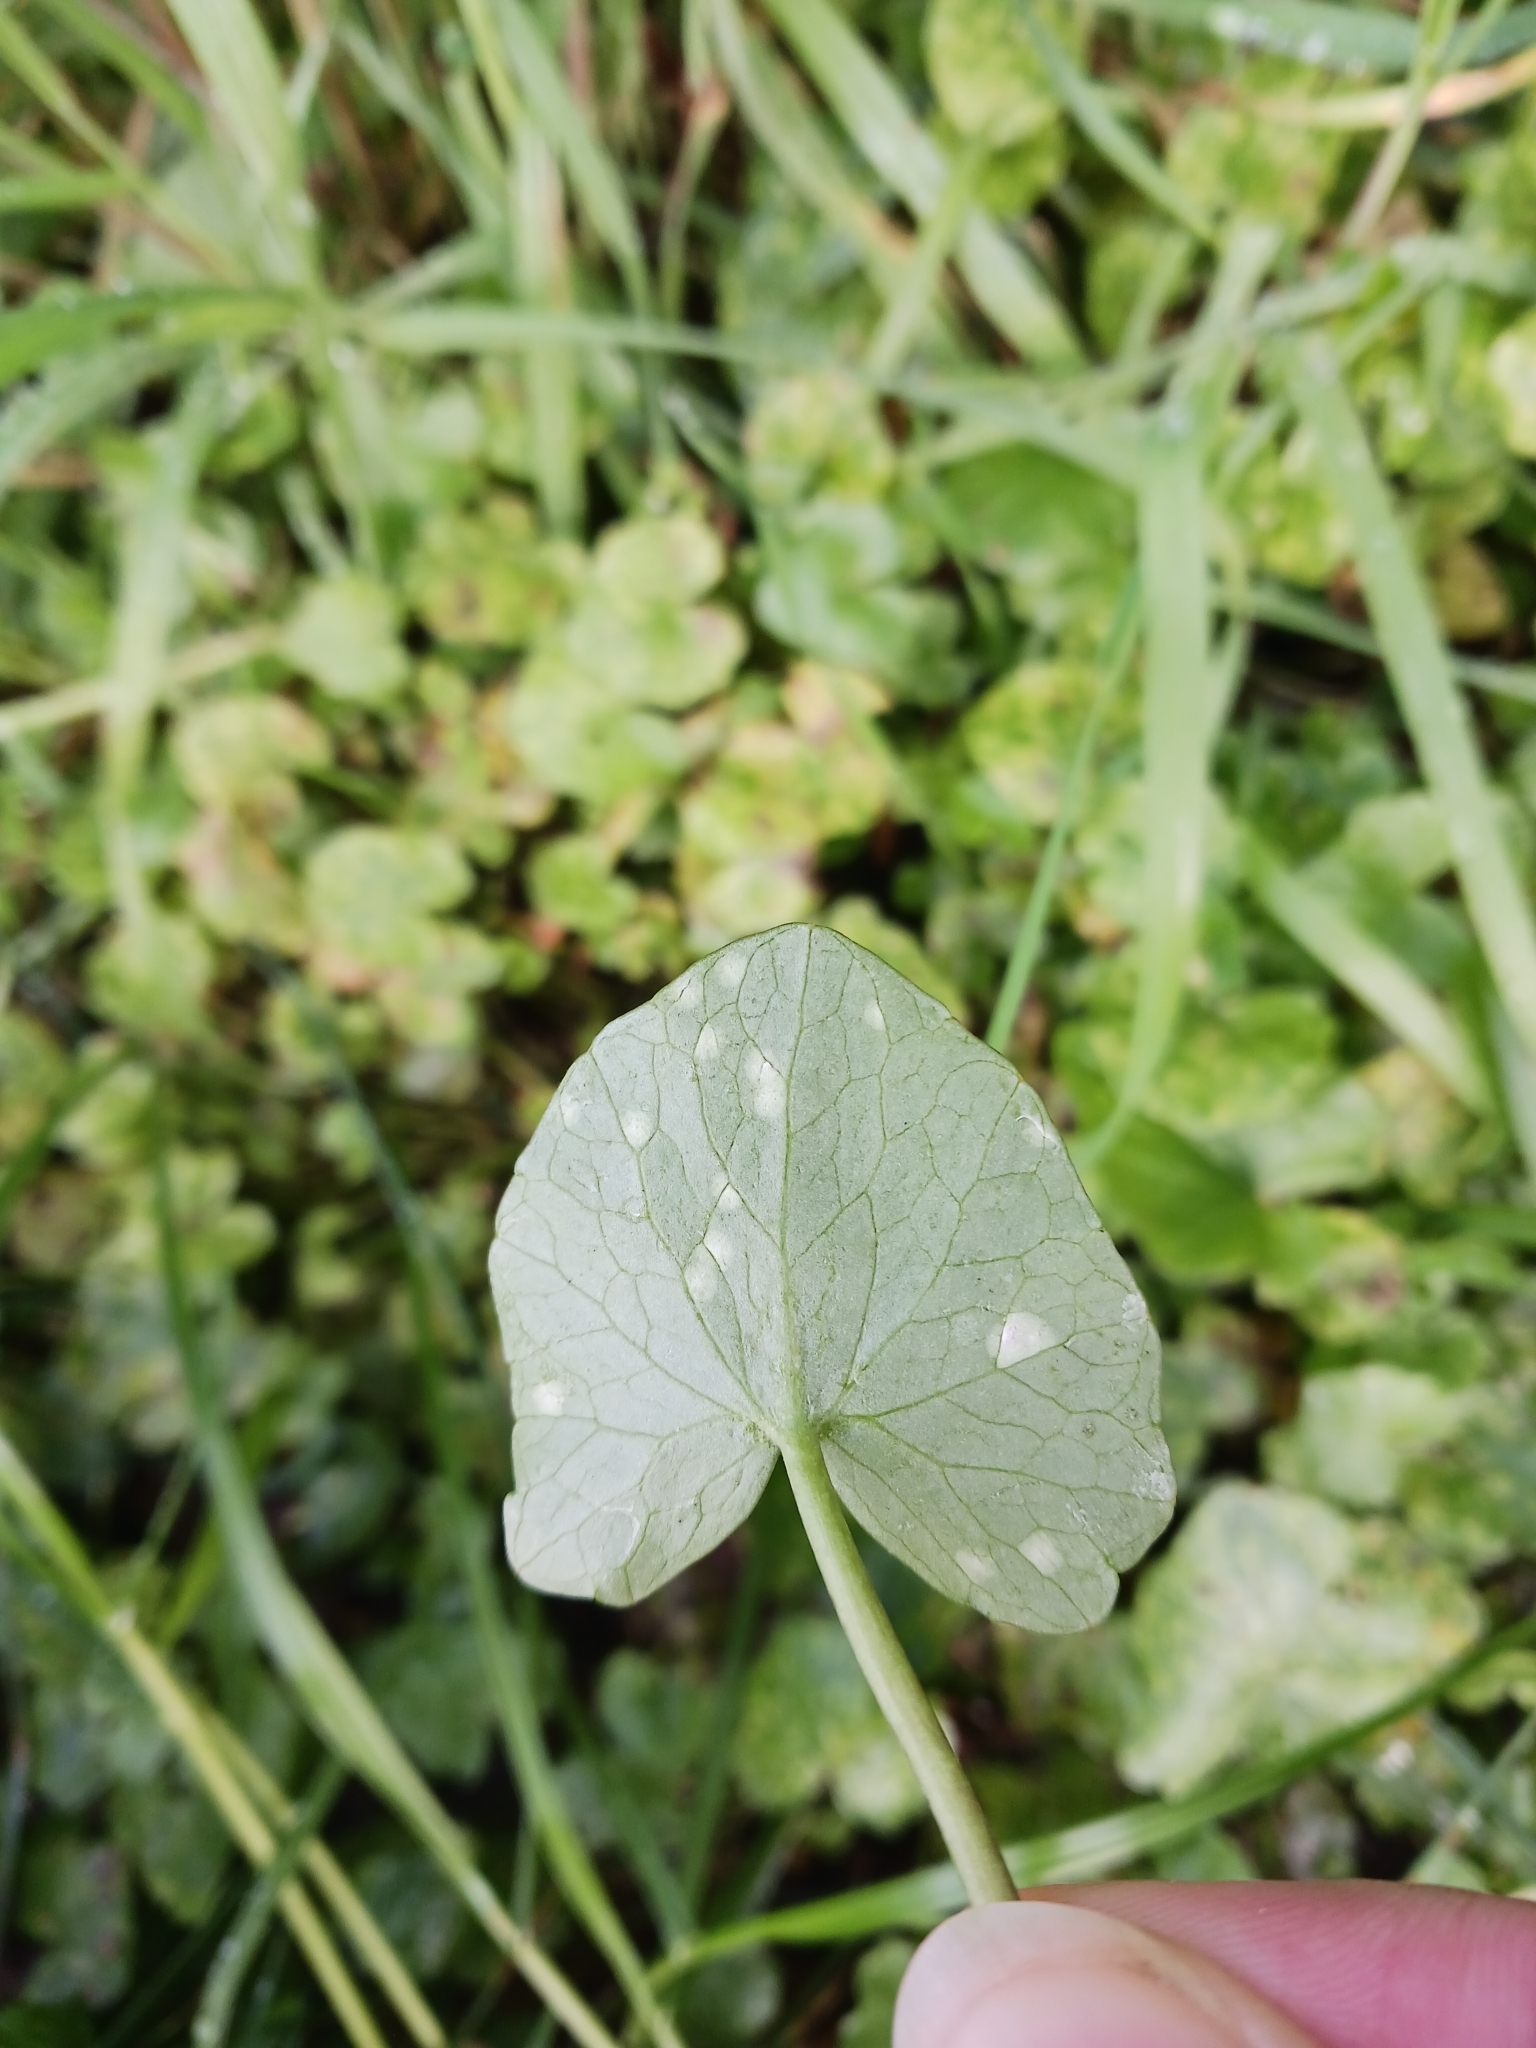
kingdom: Fungi
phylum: Basidiomycota
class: Exobasidiomycetes
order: Entylomatales
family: Entylomataceae
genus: Entyloma
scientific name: Entyloma ficariae
